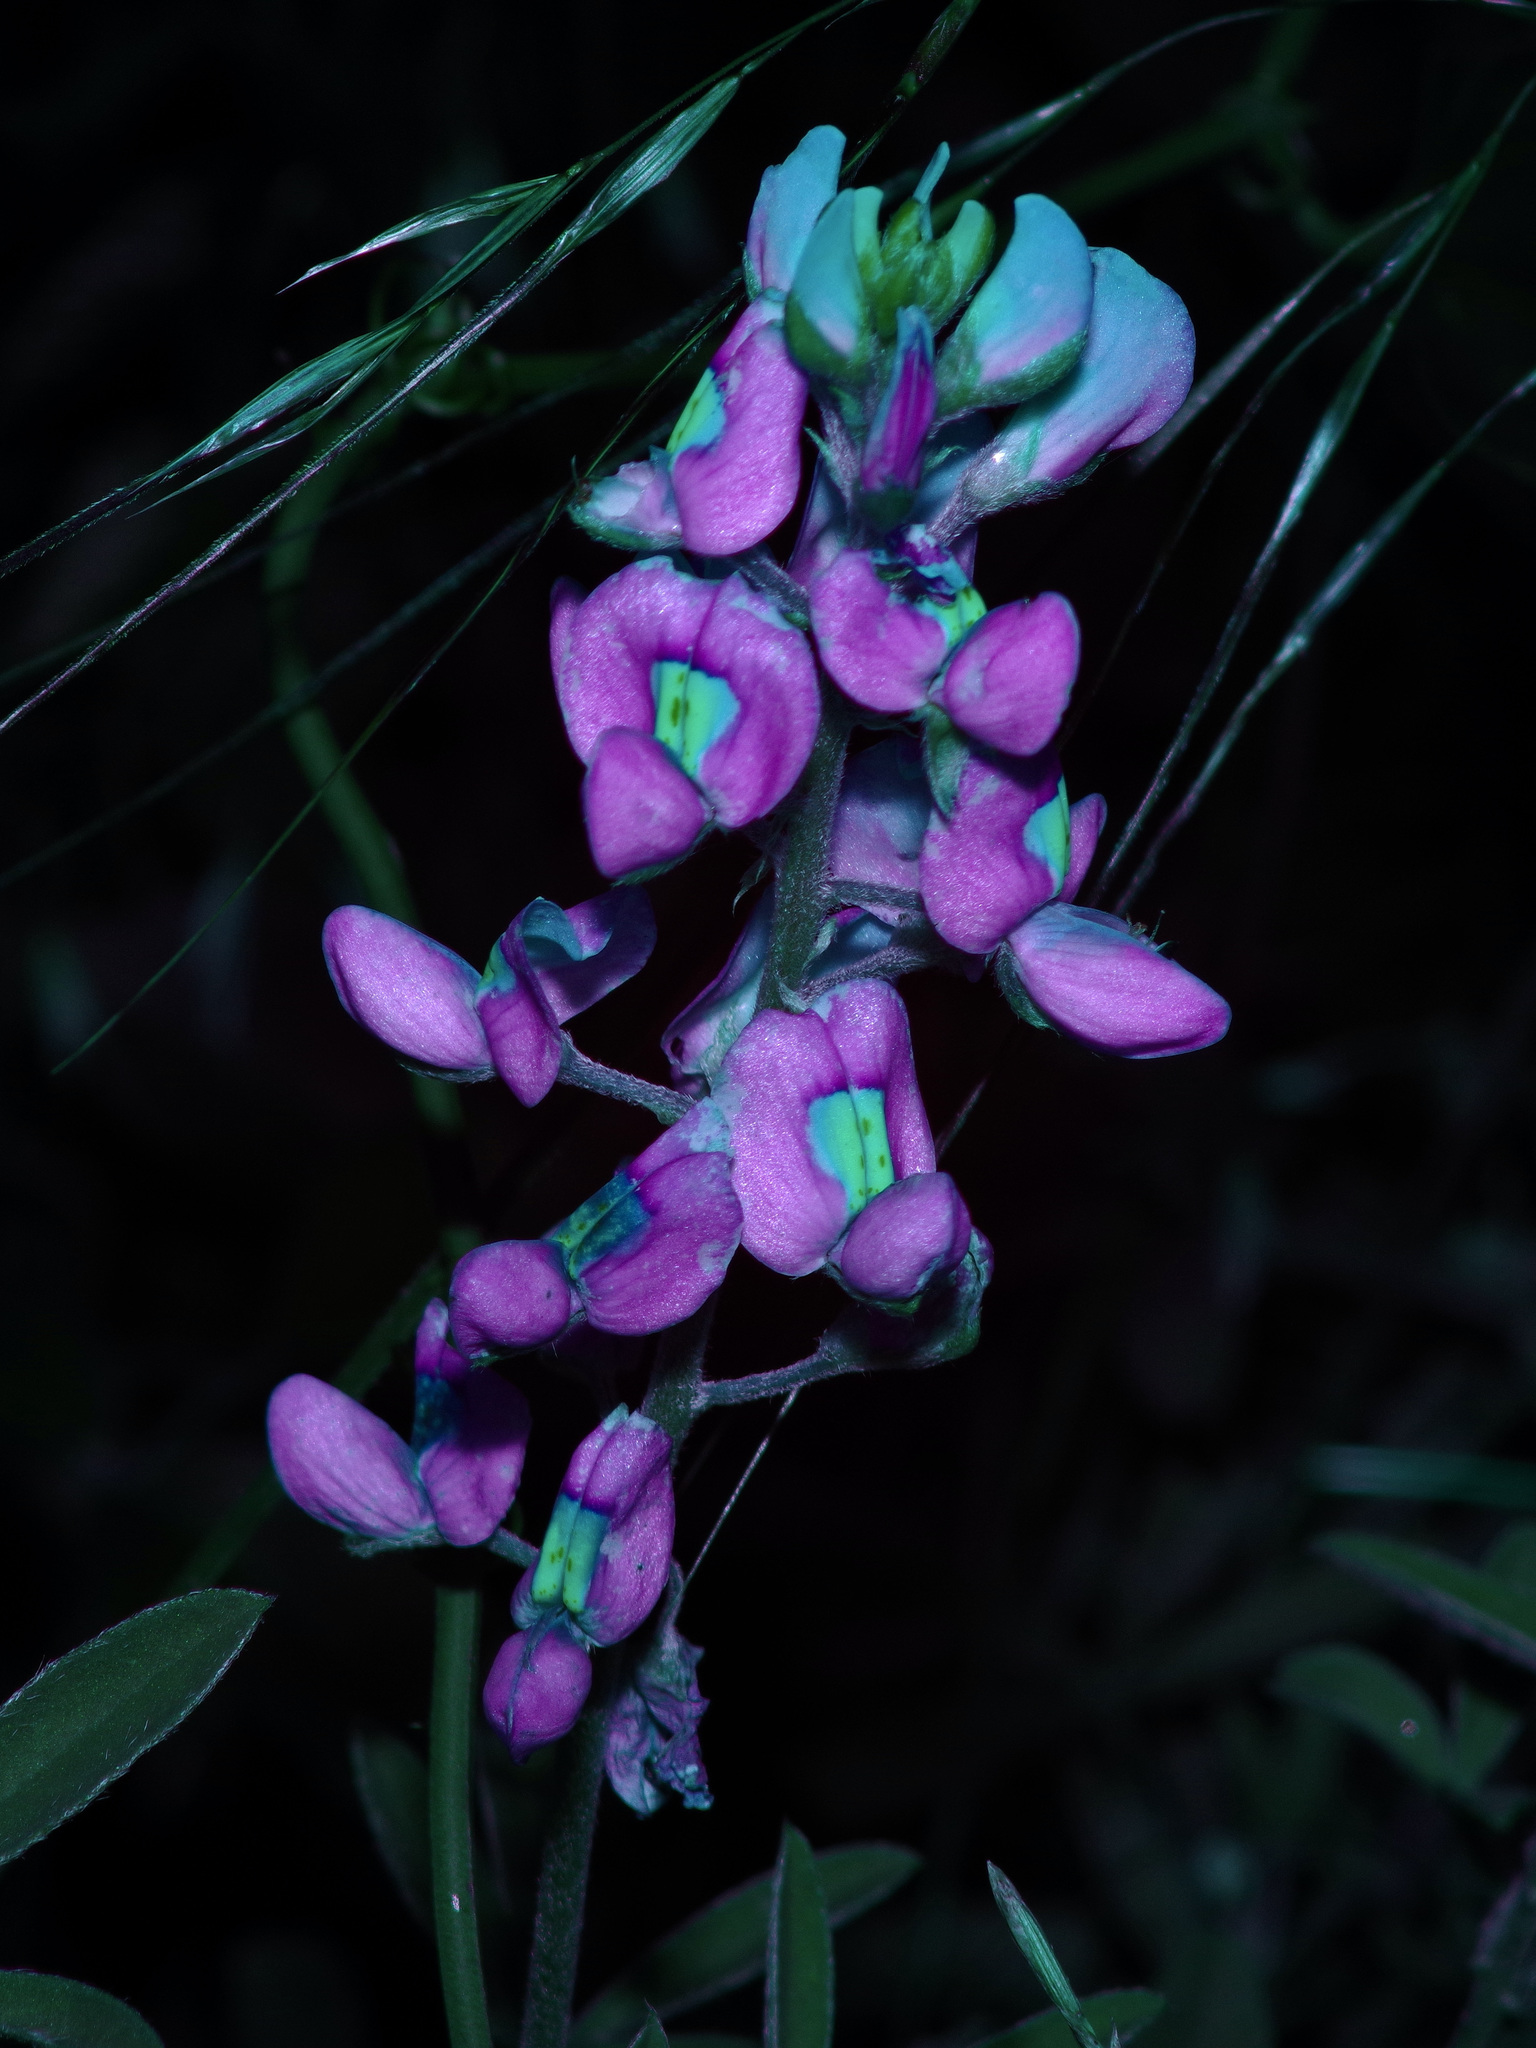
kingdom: Plantae
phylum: Tracheophyta
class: Magnoliopsida
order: Fabales
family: Fabaceae
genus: Lupinus
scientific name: Lupinus texensis
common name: Texas bluebonnet
